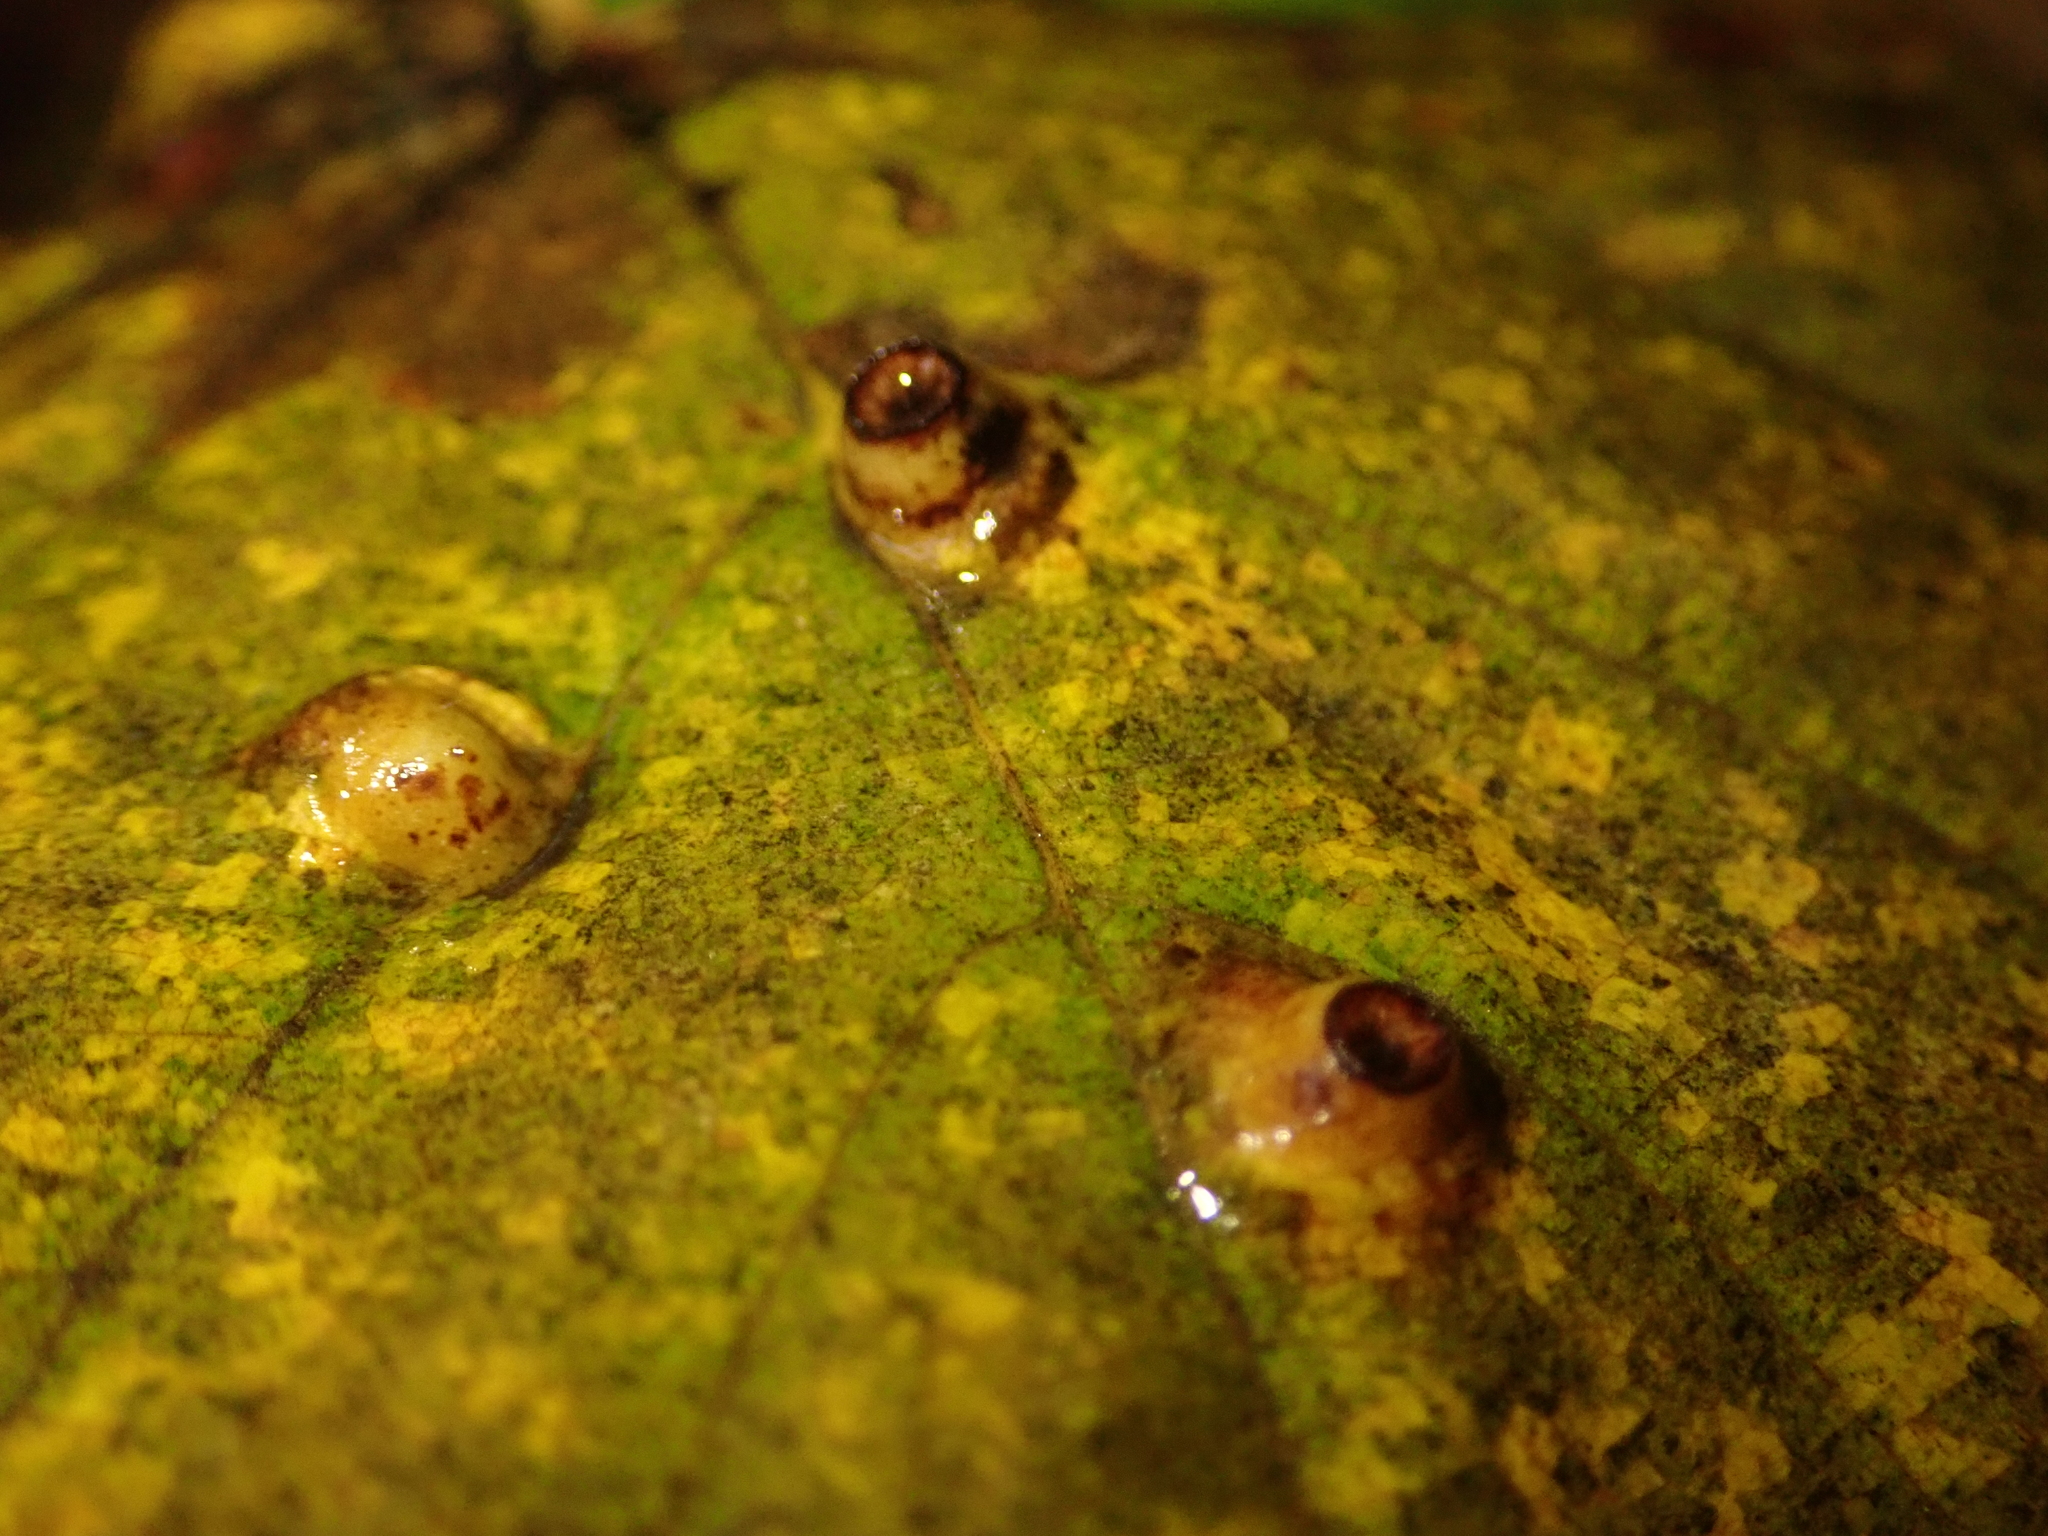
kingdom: Animalia
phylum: Arthropoda
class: Insecta
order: Diptera
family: Cecidomyiidae
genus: Didymomyia
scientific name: Didymomyia tiliacea
